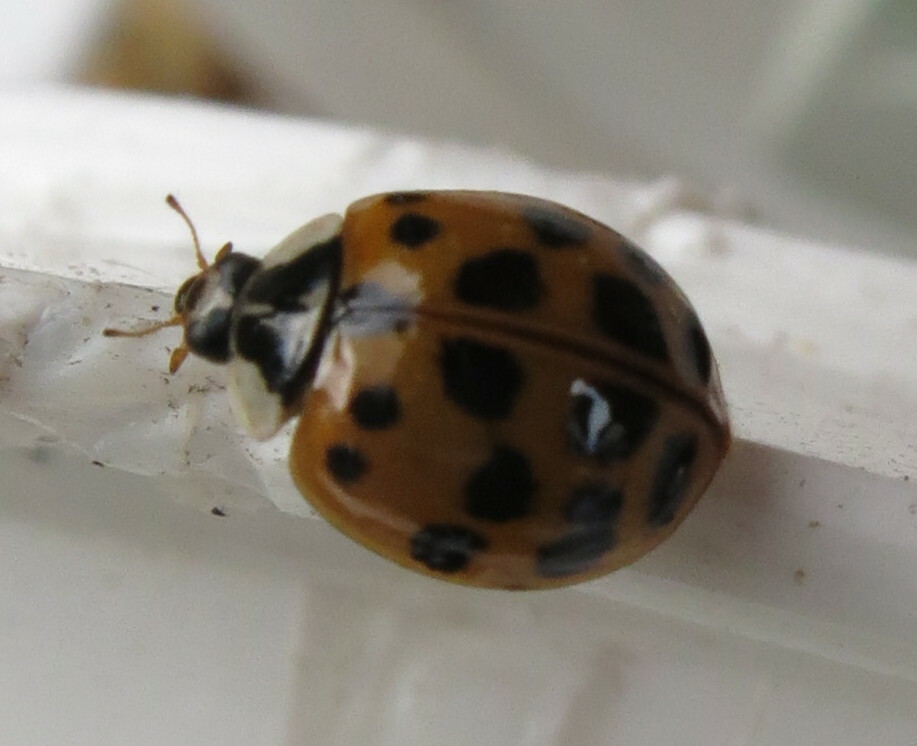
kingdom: Animalia
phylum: Arthropoda
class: Insecta
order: Coleoptera
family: Coccinellidae
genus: Harmonia
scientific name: Harmonia axyridis
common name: Harlequin ladybird
